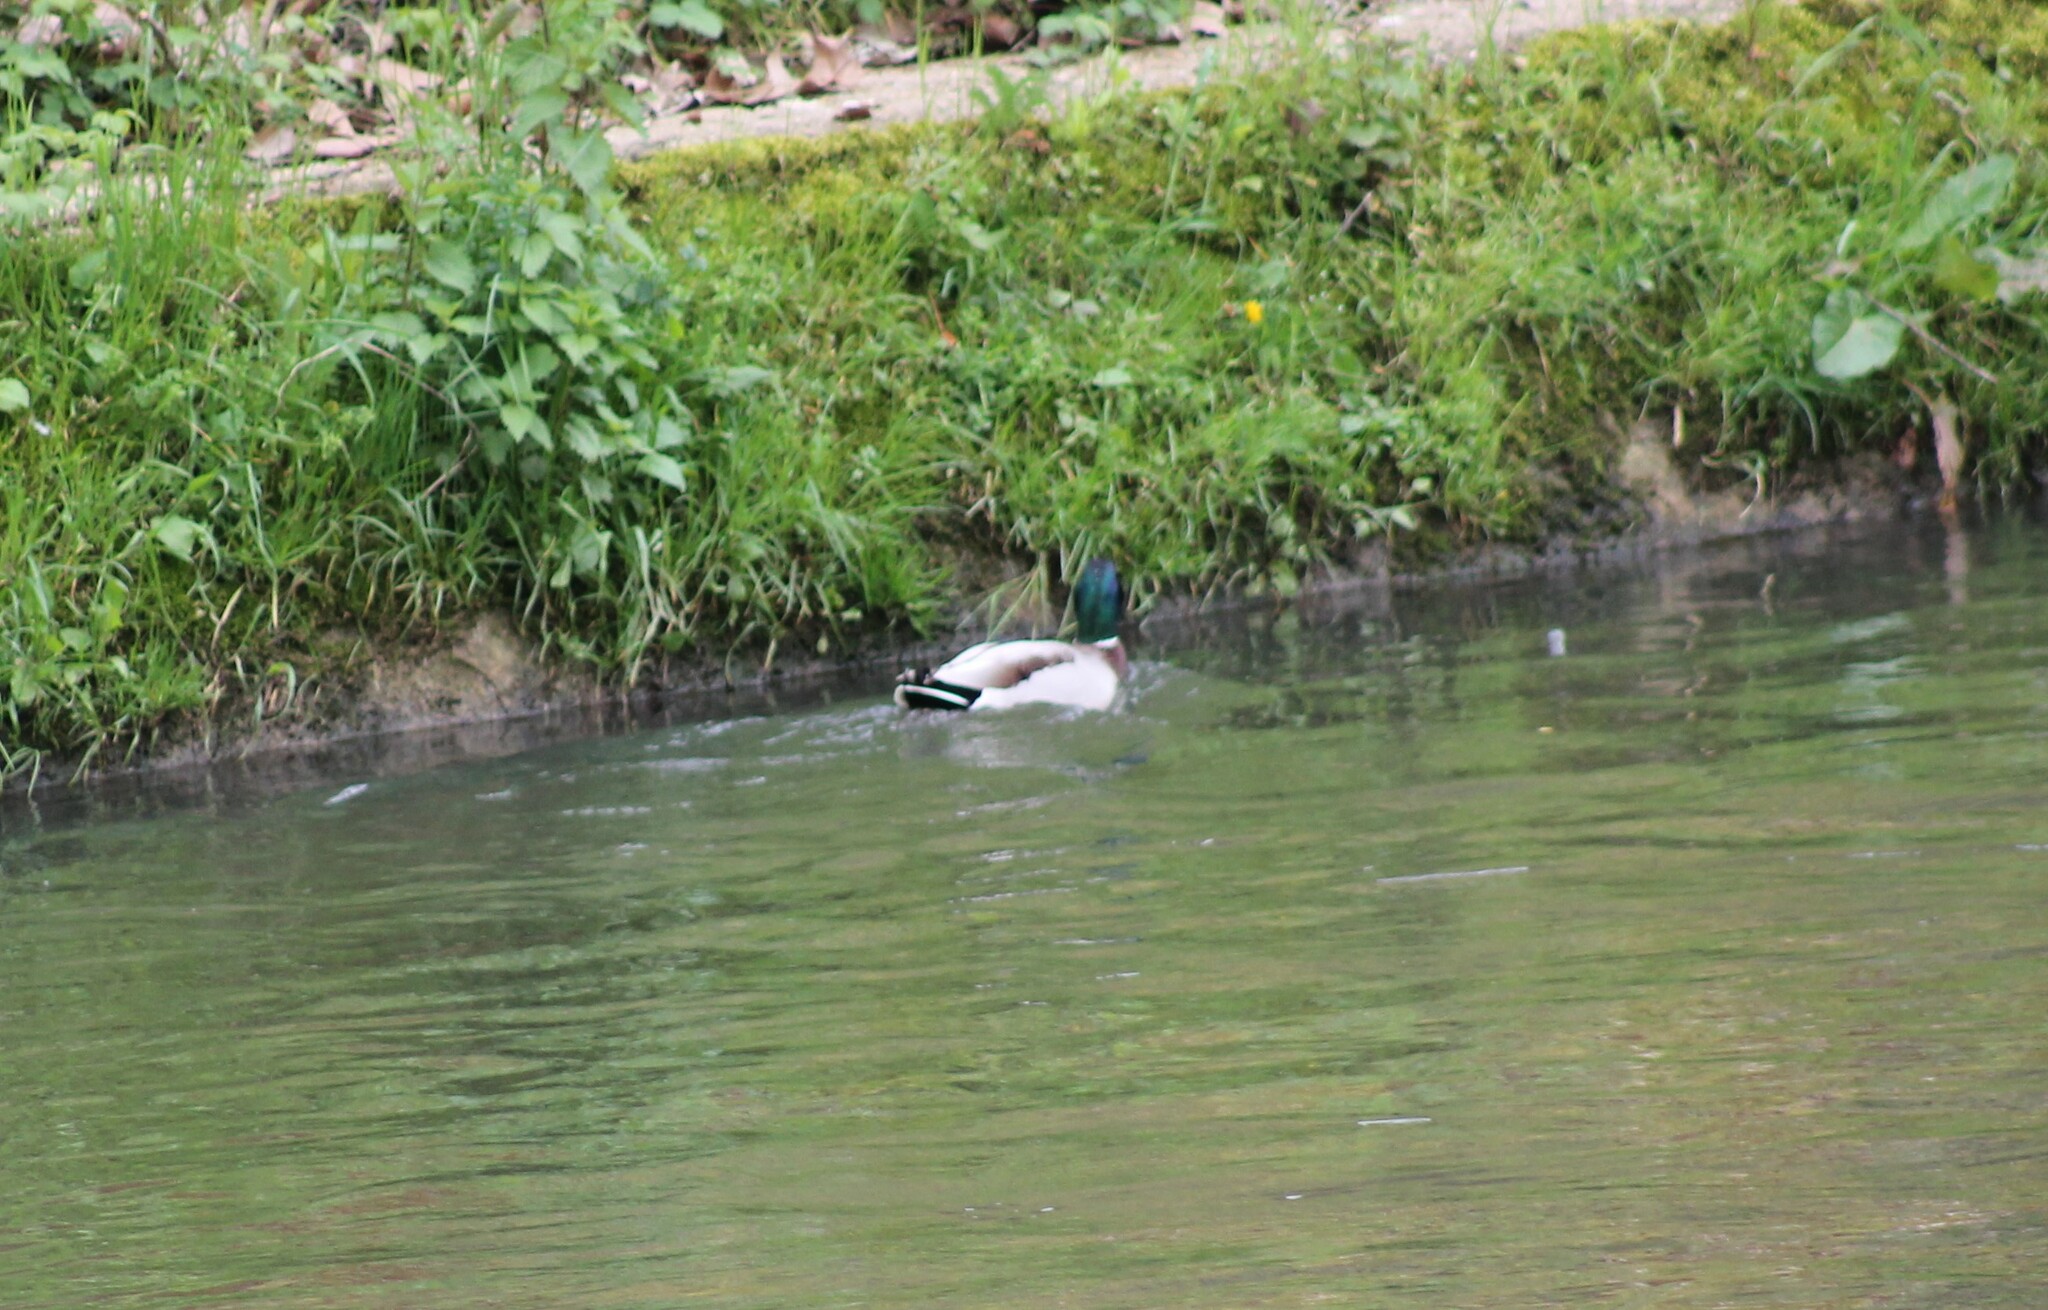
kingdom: Animalia
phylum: Chordata
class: Aves
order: Anseriformes
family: Anatidae
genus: Anas
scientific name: Anas platyrhynchos
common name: Mallard
